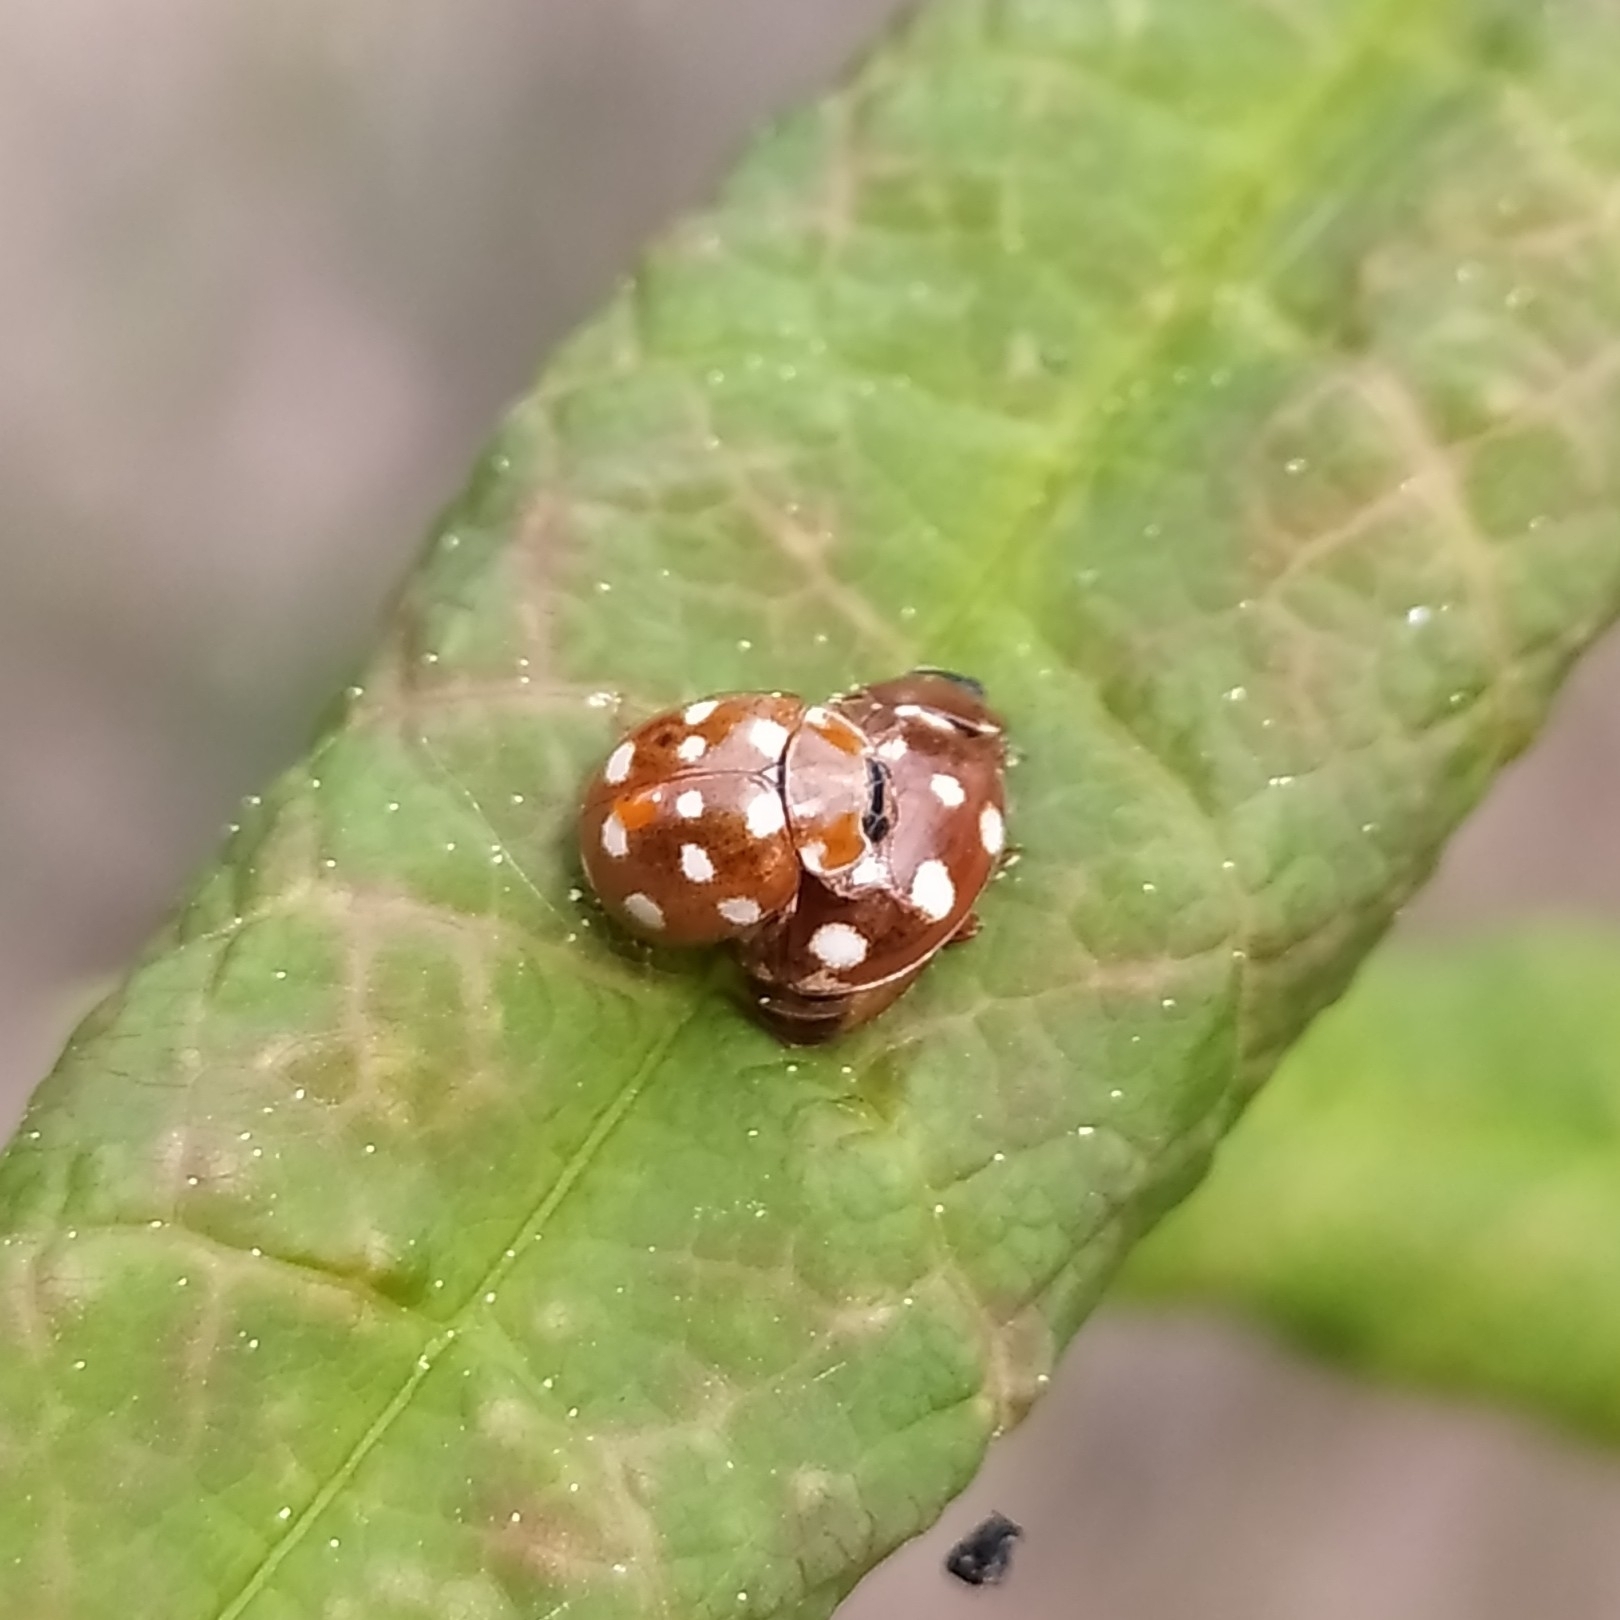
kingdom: Animalia
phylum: Arthropoda
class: Insecta
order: Coleoptera
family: Coccinellidae
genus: Calvia
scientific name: Calvia quatuordecimguttata
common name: Cream-spot ladybird
